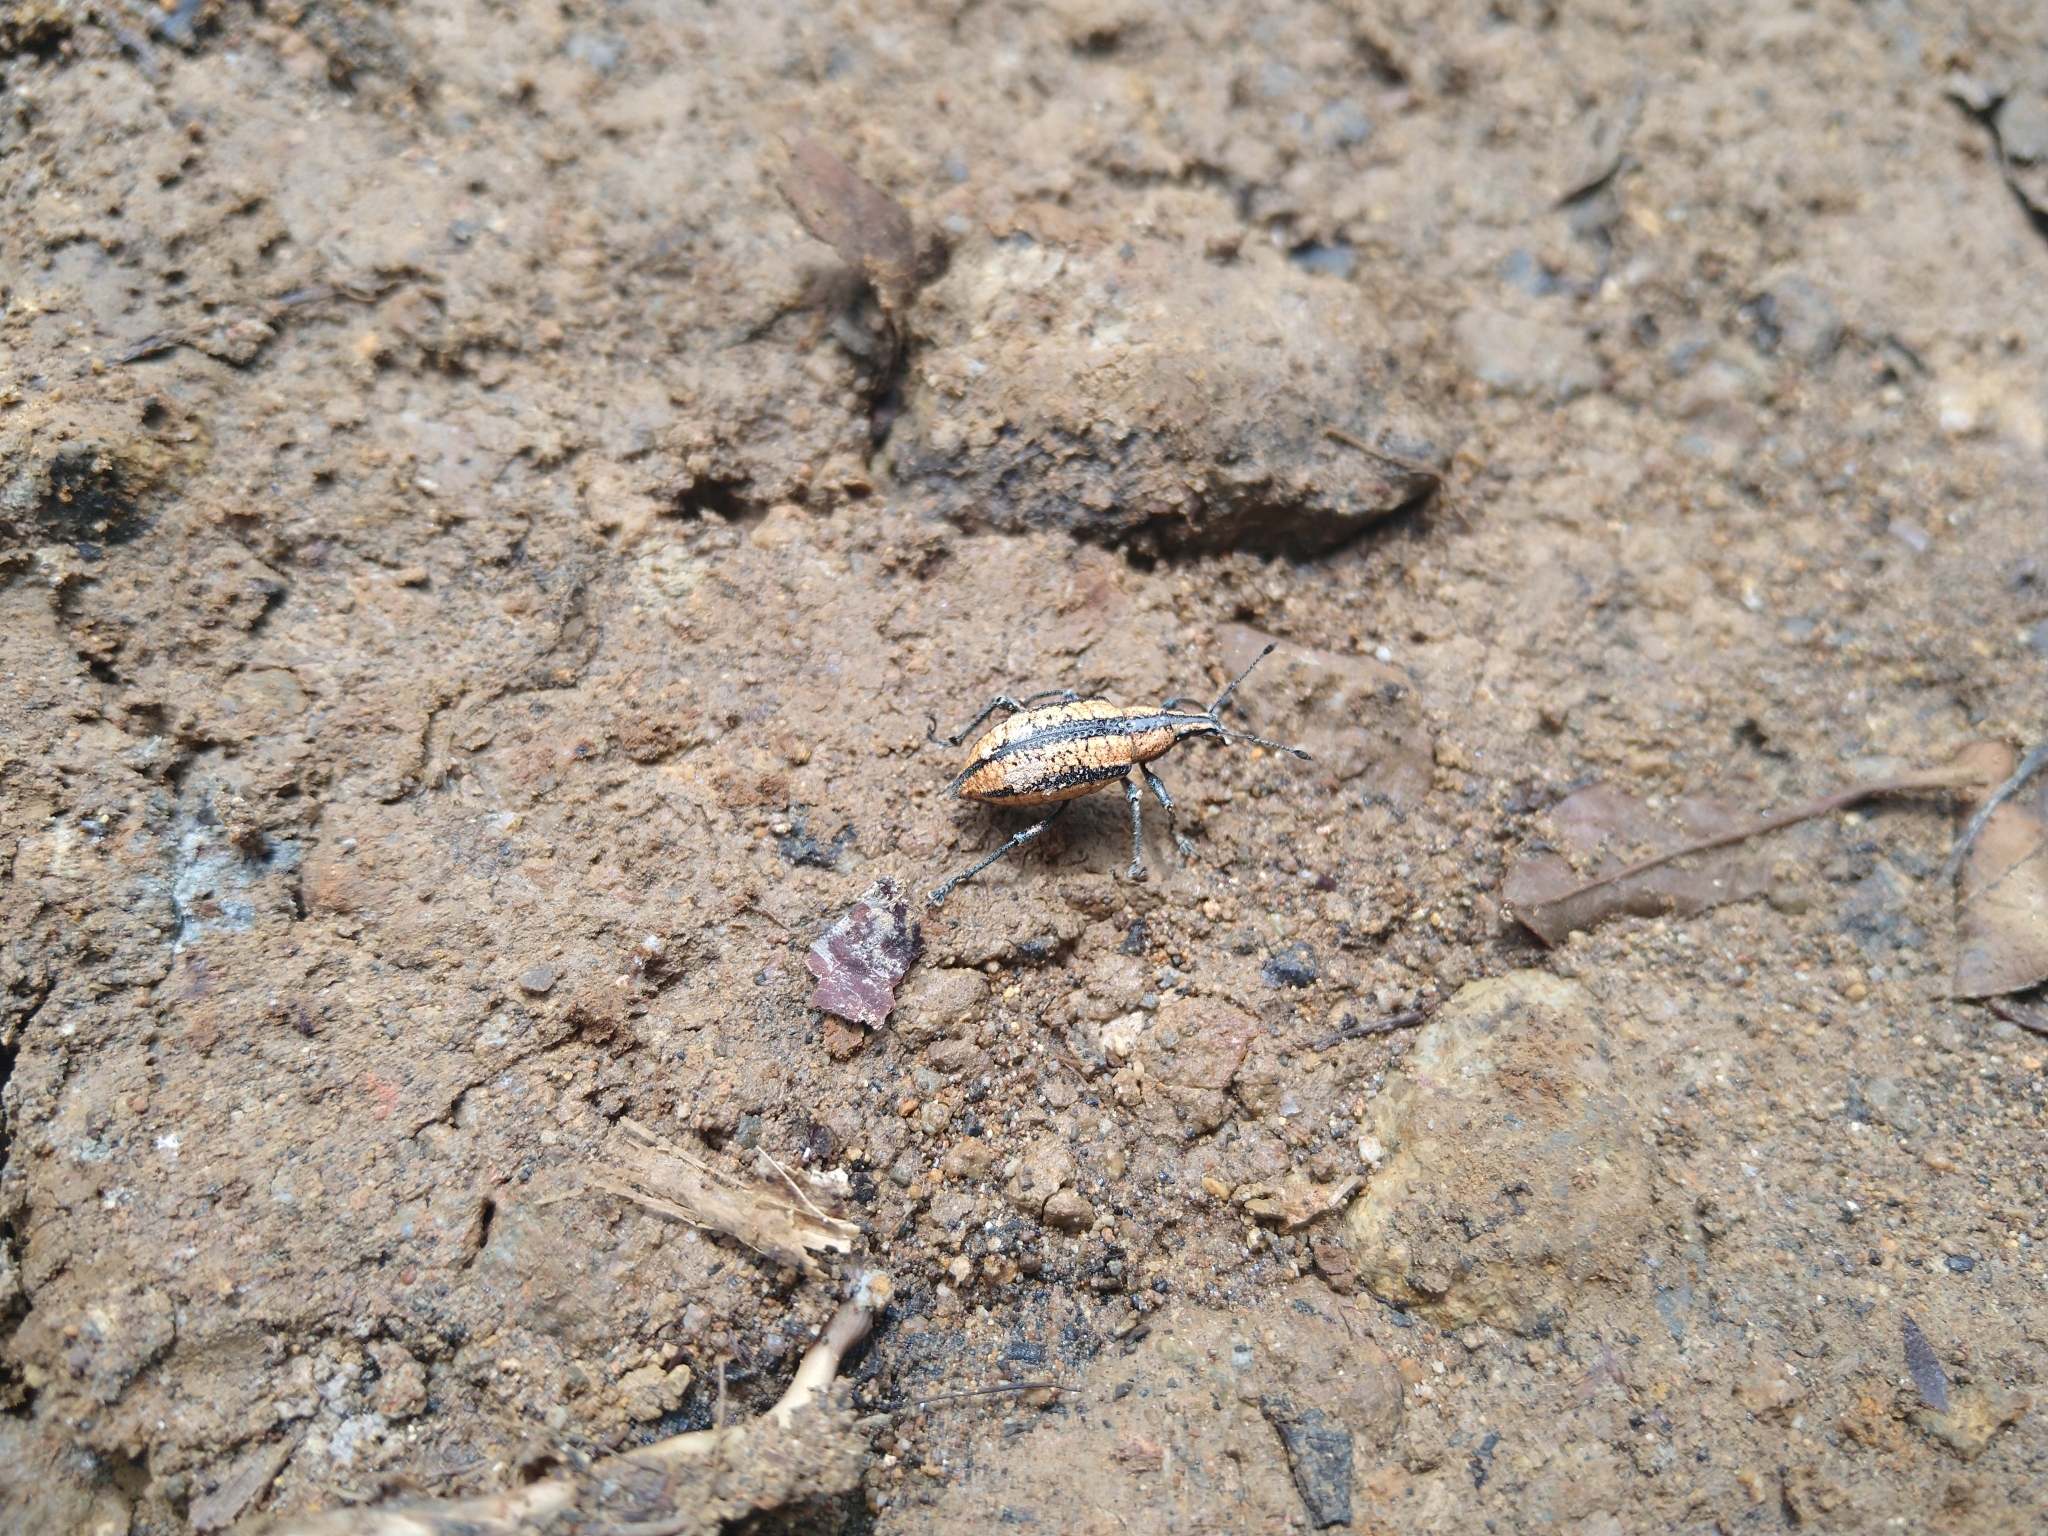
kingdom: Animalia
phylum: Arthropoda
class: Insecta
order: Coleoptera
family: Curculionidae
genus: Exophthalmus
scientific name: Exophthalmus tessellatus
